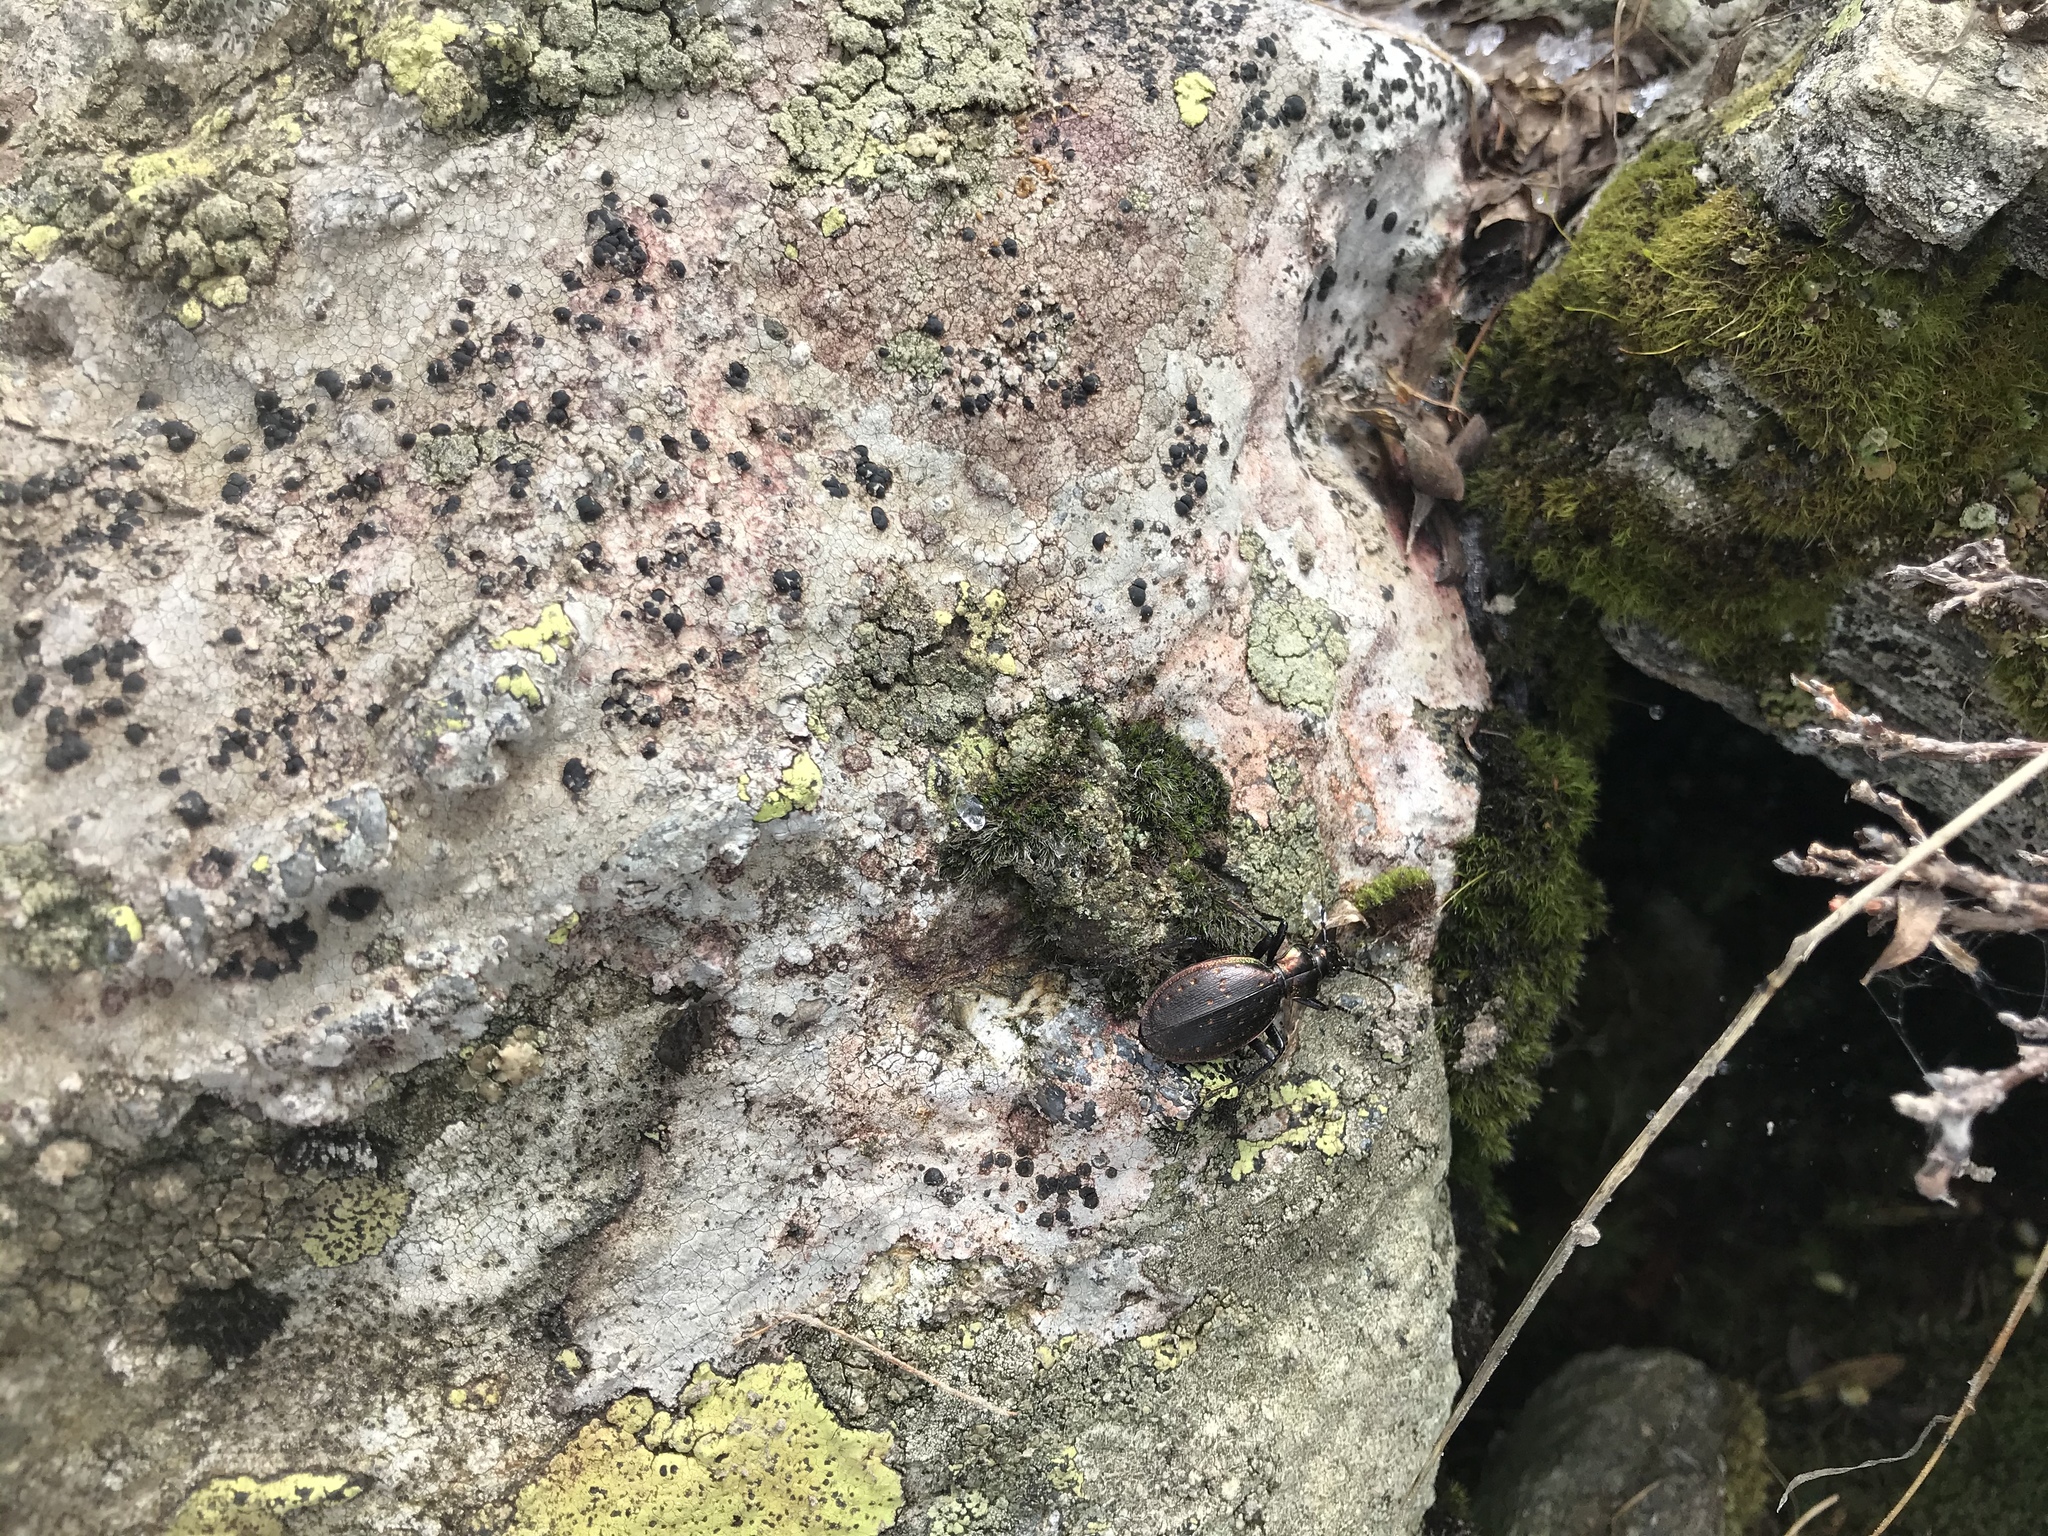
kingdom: Animalia
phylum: Arthropoda
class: Insecta
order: Coleoptera
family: Carabidae
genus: Carabus
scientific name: Carabus depressus
